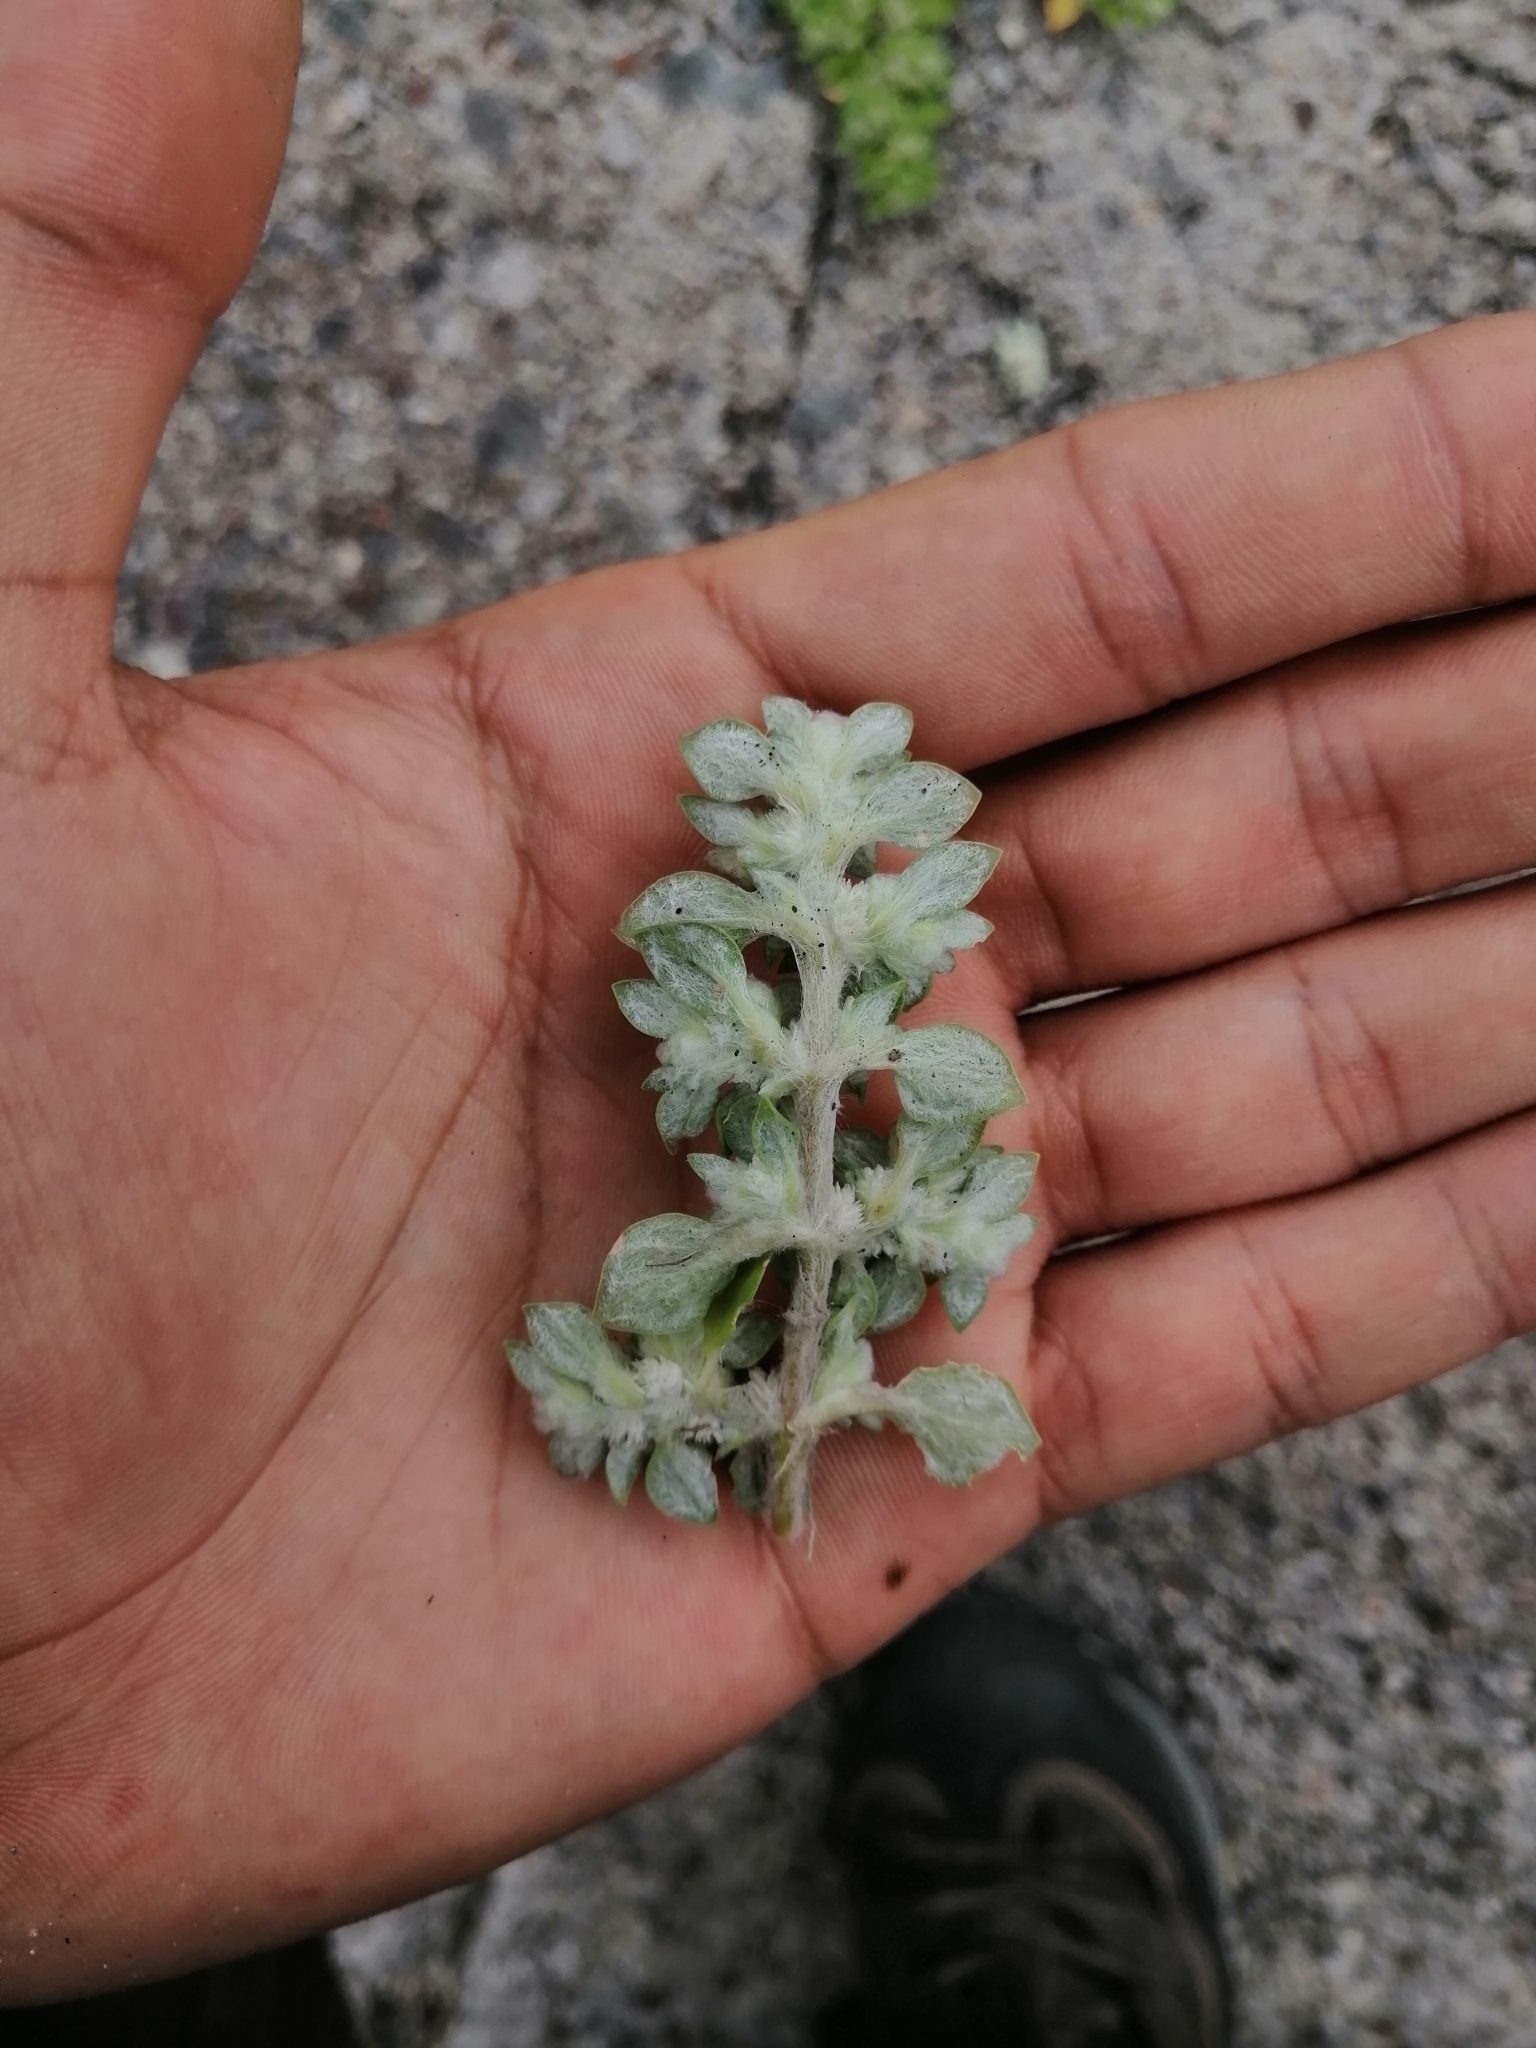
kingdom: Plantae
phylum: Tracheophyta
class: Magnoliopsida
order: Caryophyllales
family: Amaranthaceae
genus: Guilleminea
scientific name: Guilleminea densa
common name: Small matweed
